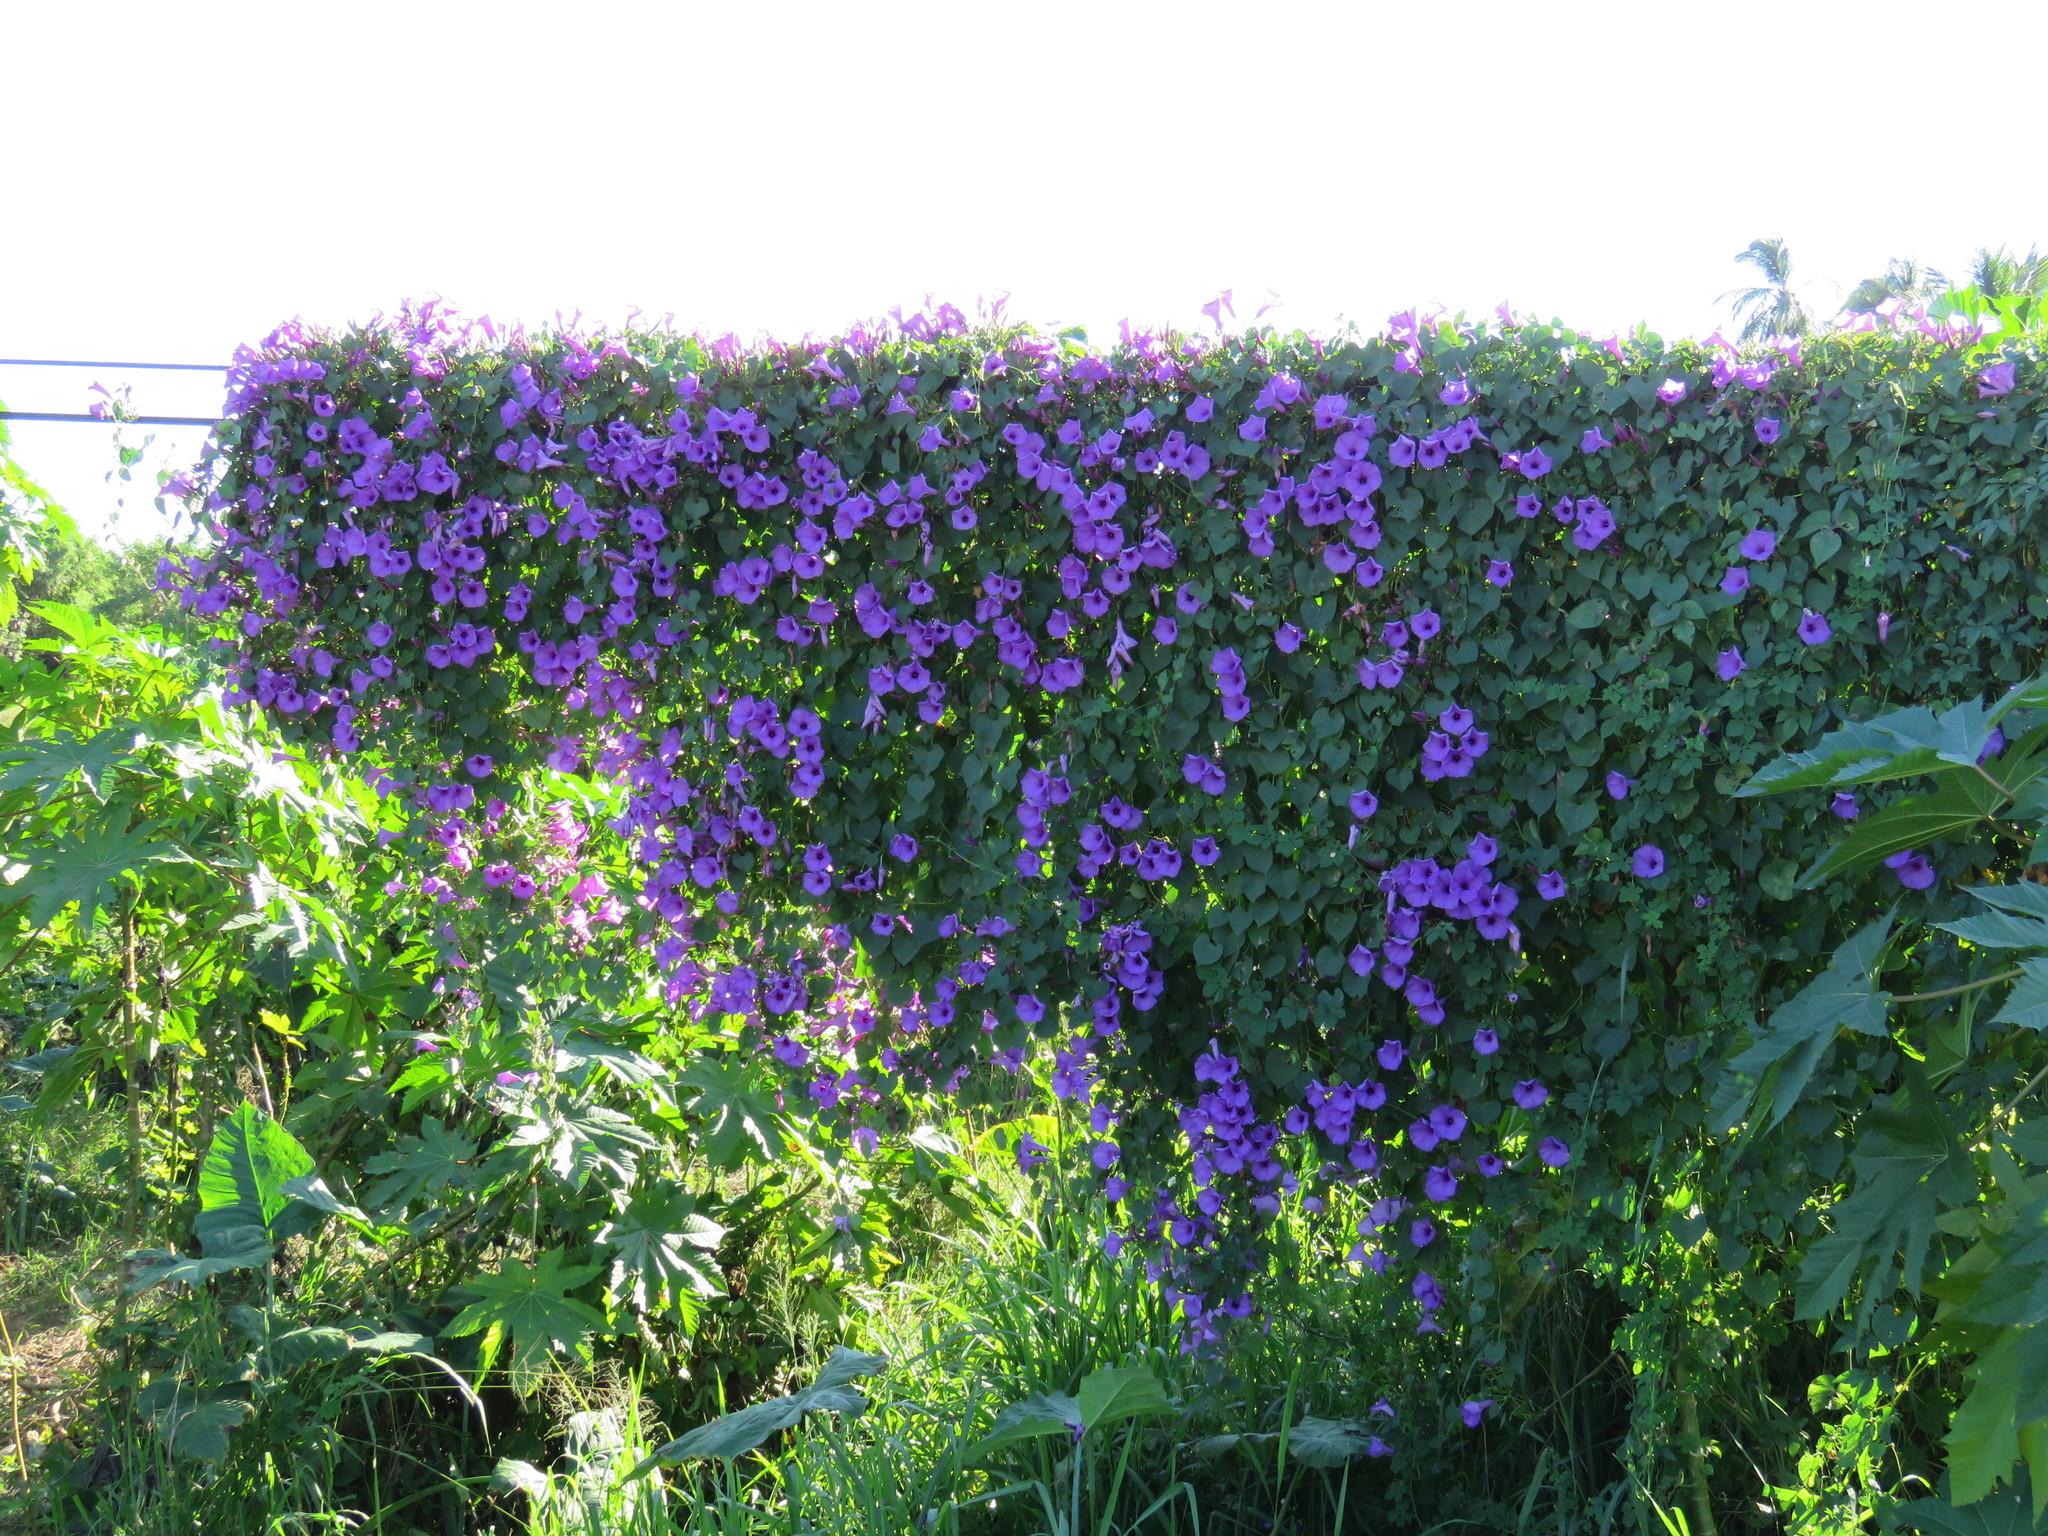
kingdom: Plantae
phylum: Tracheophyta
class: Magnoliopsida
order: Solanales
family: Convolvulaceae
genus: Ipomoea
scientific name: Ipomoea pedicellaris
